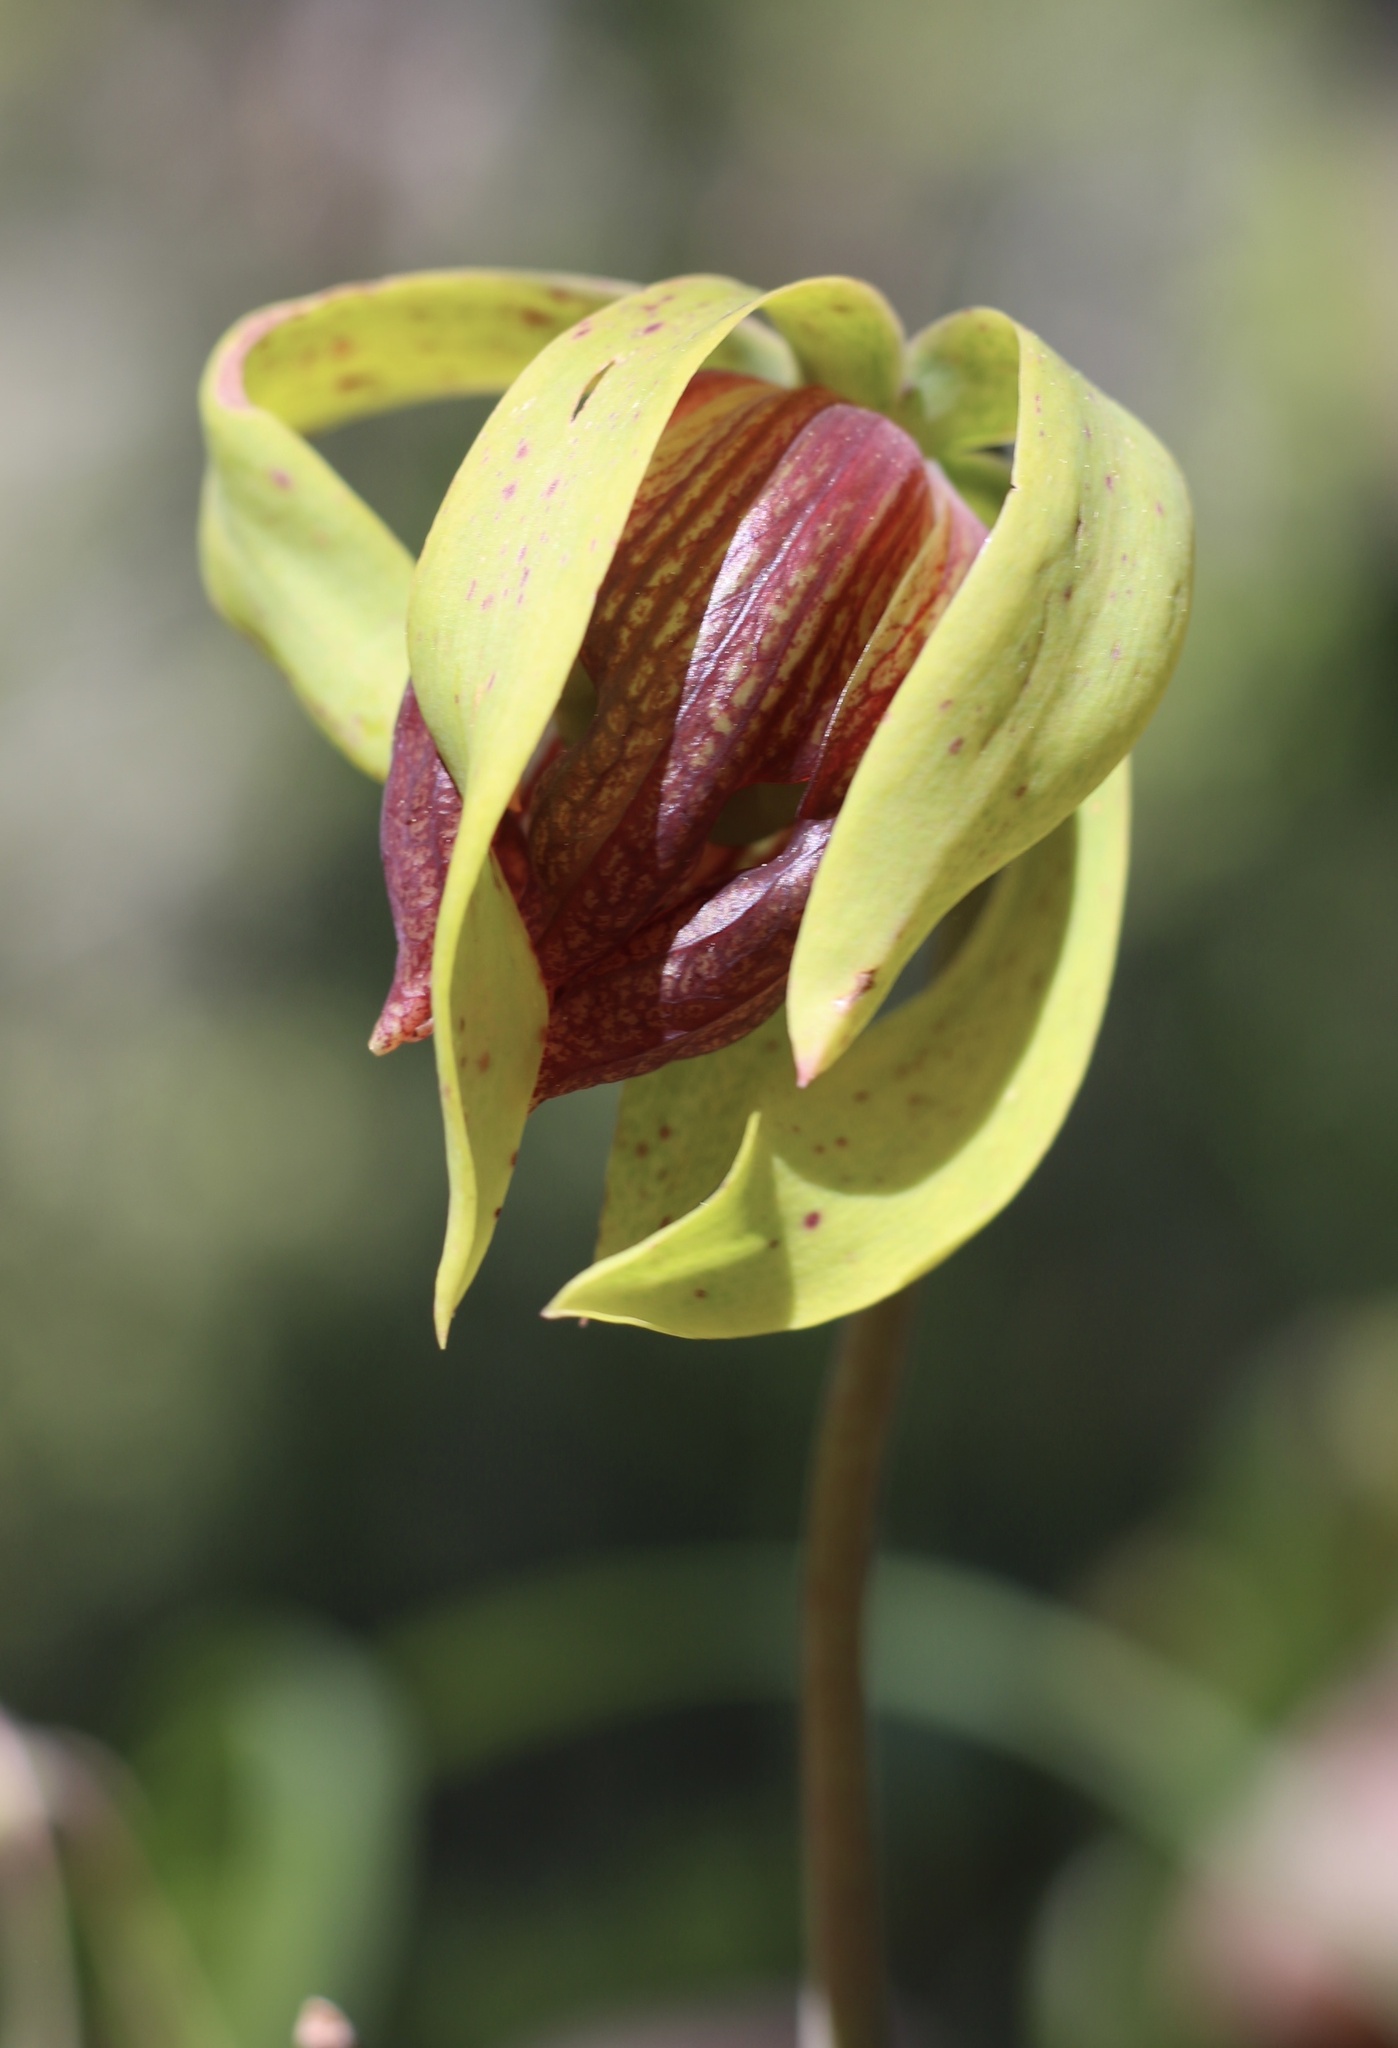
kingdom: Plantae
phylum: Tracheophyta
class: Magnoliopsida
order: Ericales
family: Sarraceniaceae
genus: Darlingtonia
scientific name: Darlingtonia californica
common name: California pitcher plant
